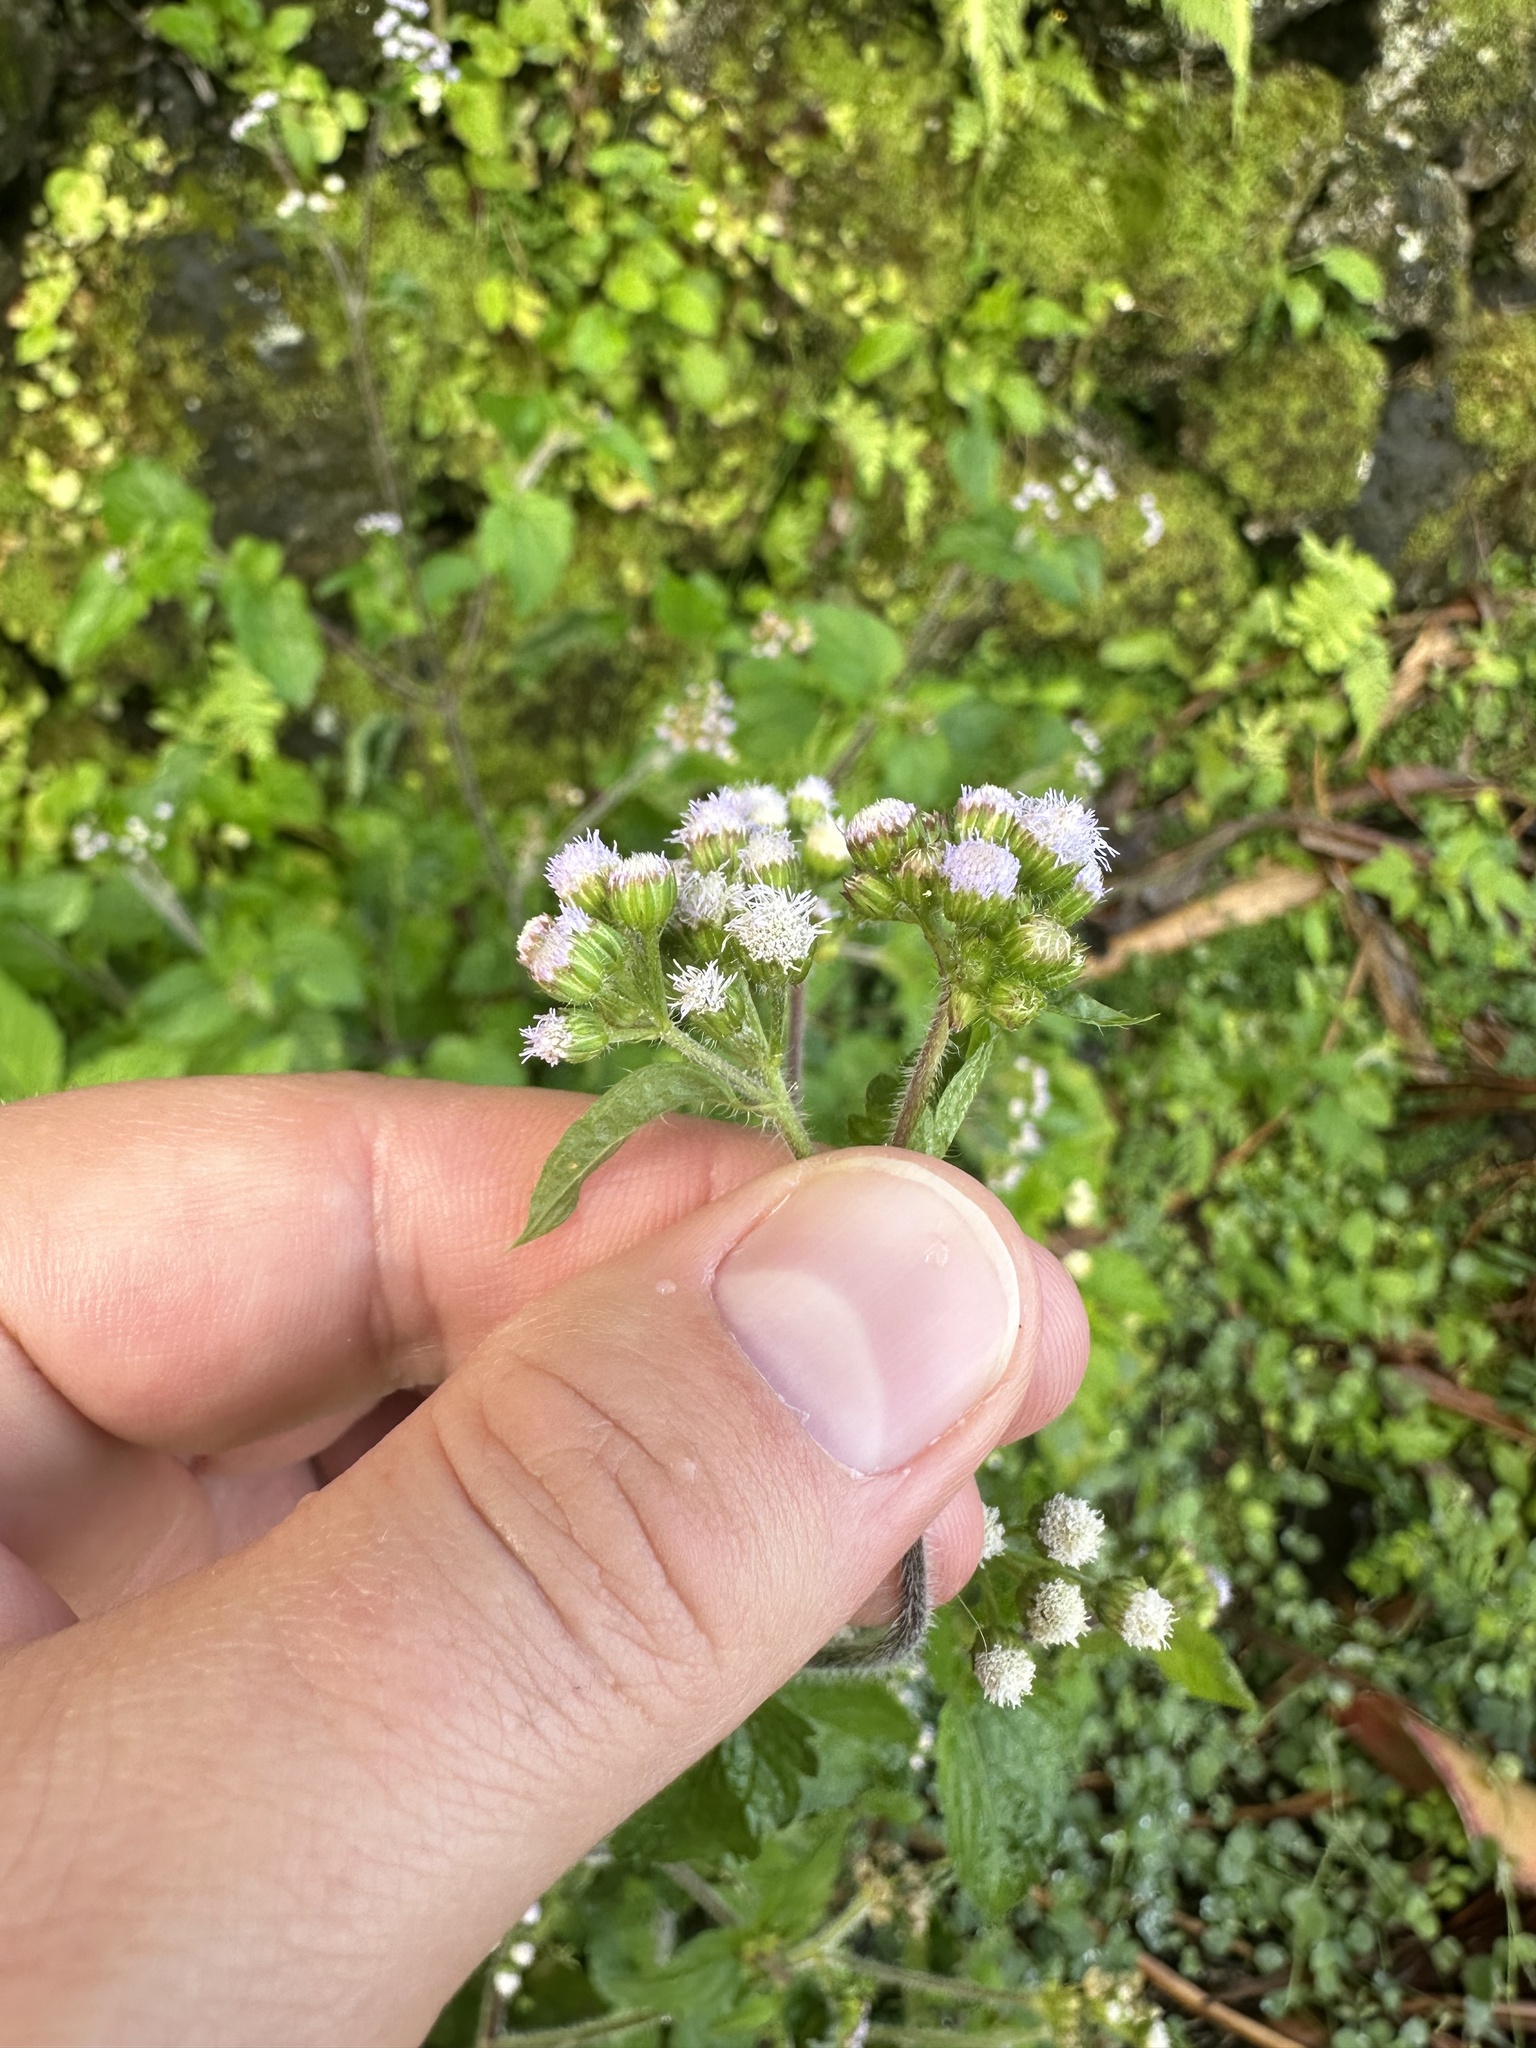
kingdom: Plantae
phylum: Tracheophyta
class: Magnoliopsida
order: Asterales
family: Asteraceae
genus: Ageratum
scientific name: Ageratum conyzoides
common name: Tropical whiteweed
